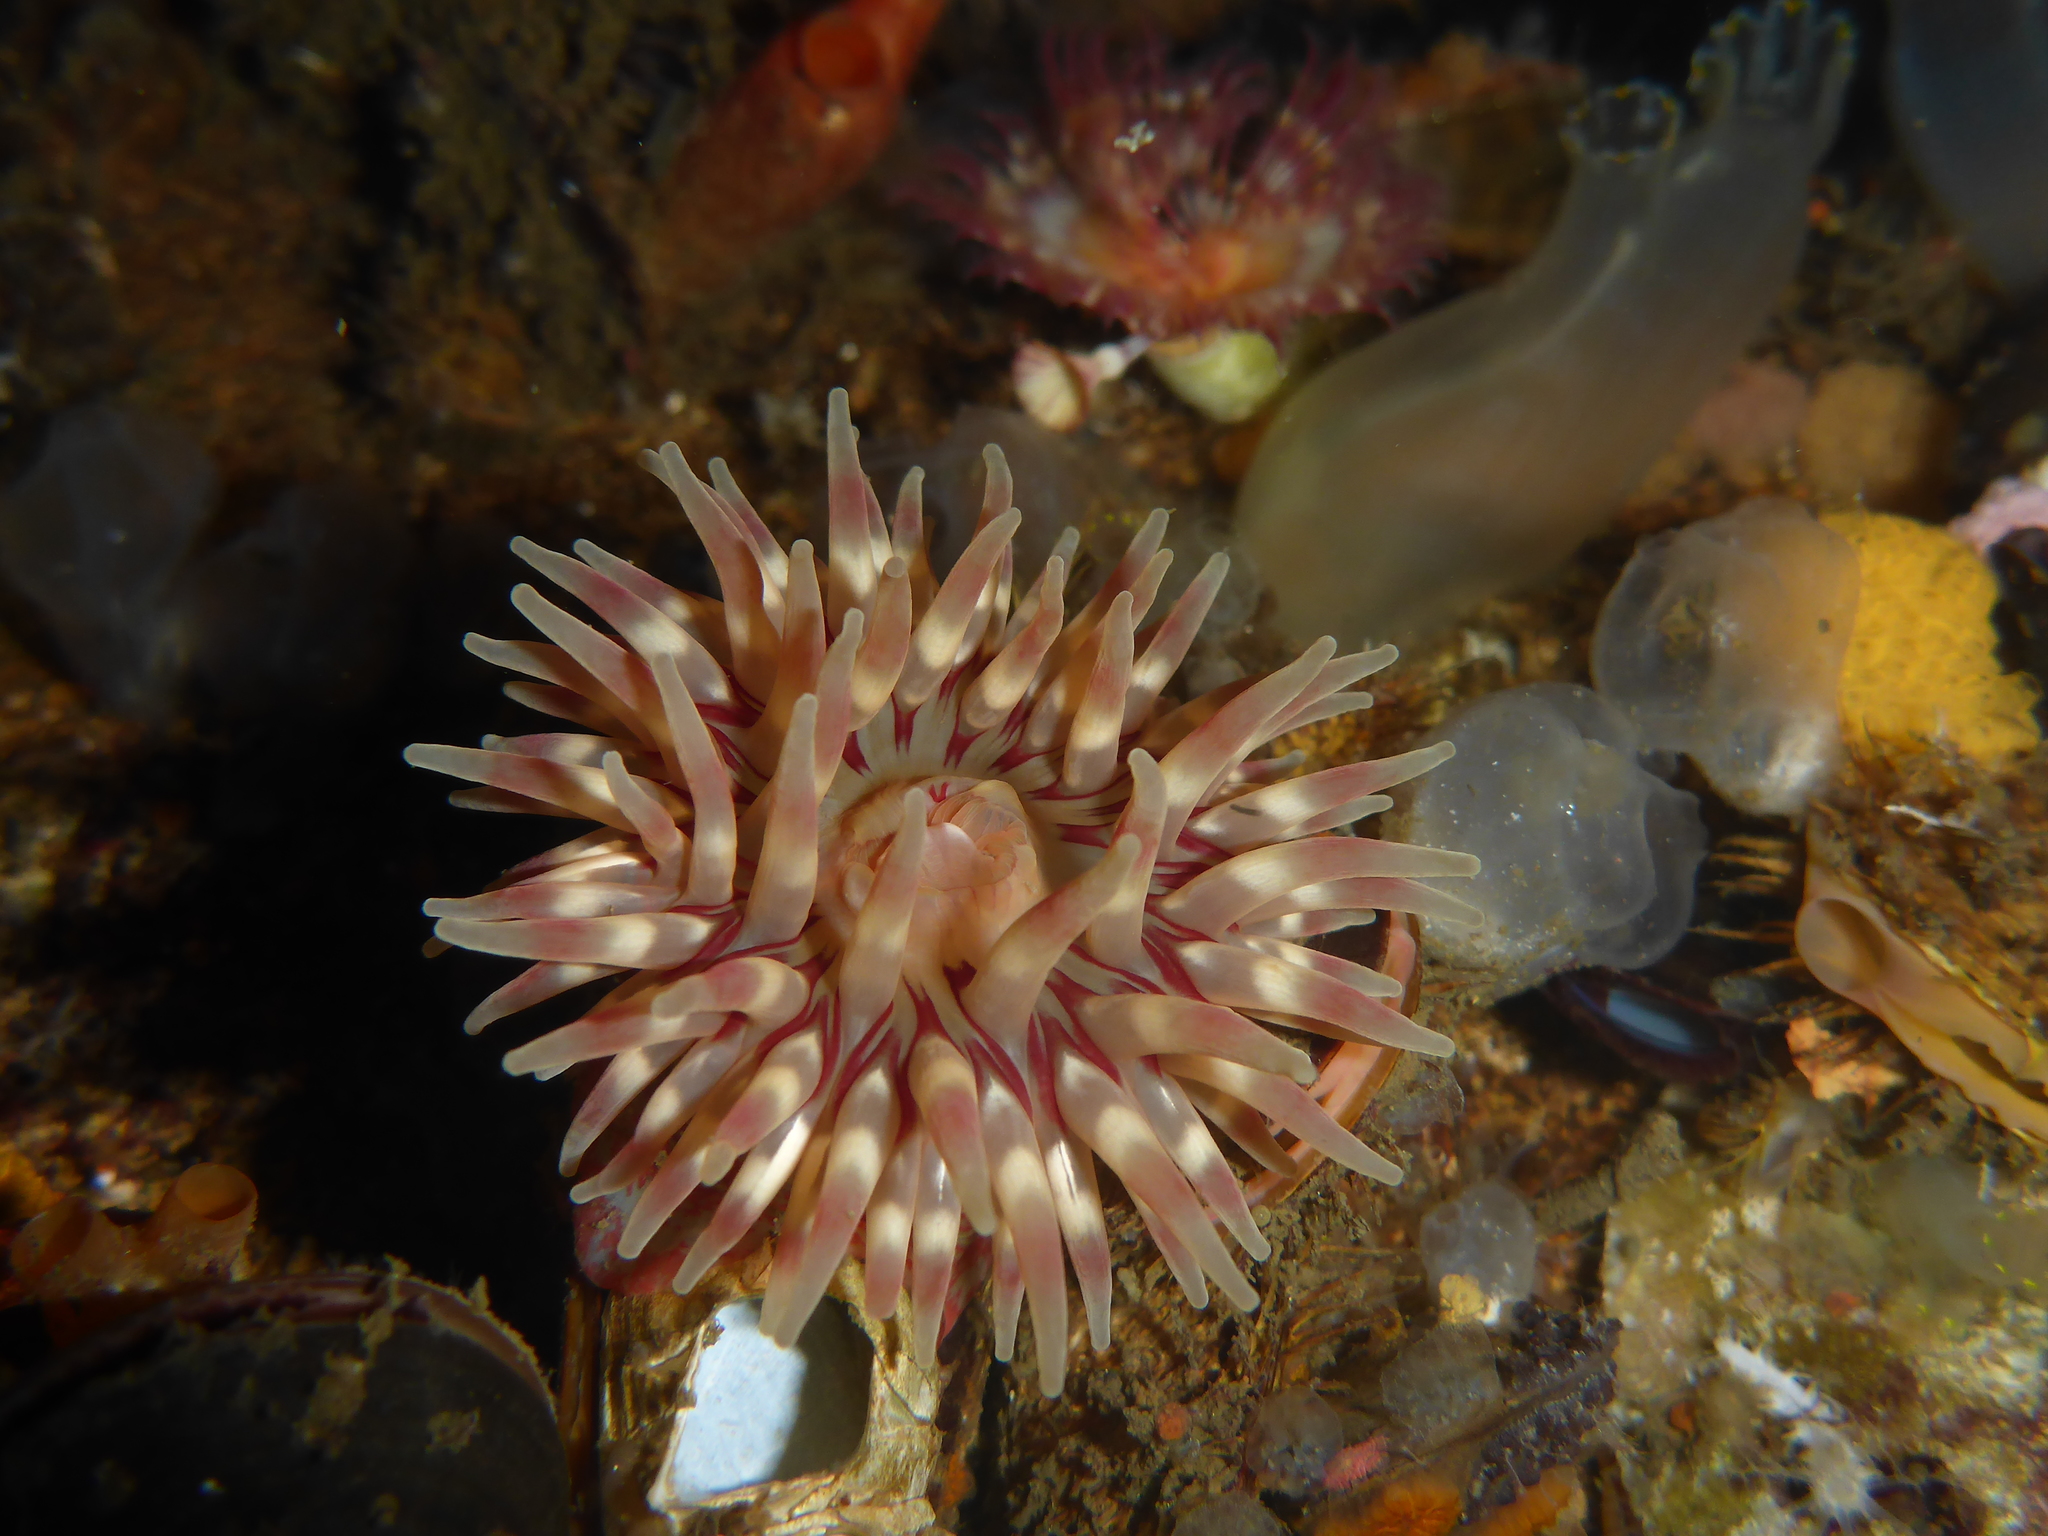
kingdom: Animalia
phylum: Cnidaria
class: Anthozoa
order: Actiniaria
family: Actiniidae
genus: Urticina
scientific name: Urticina grebelnyi
